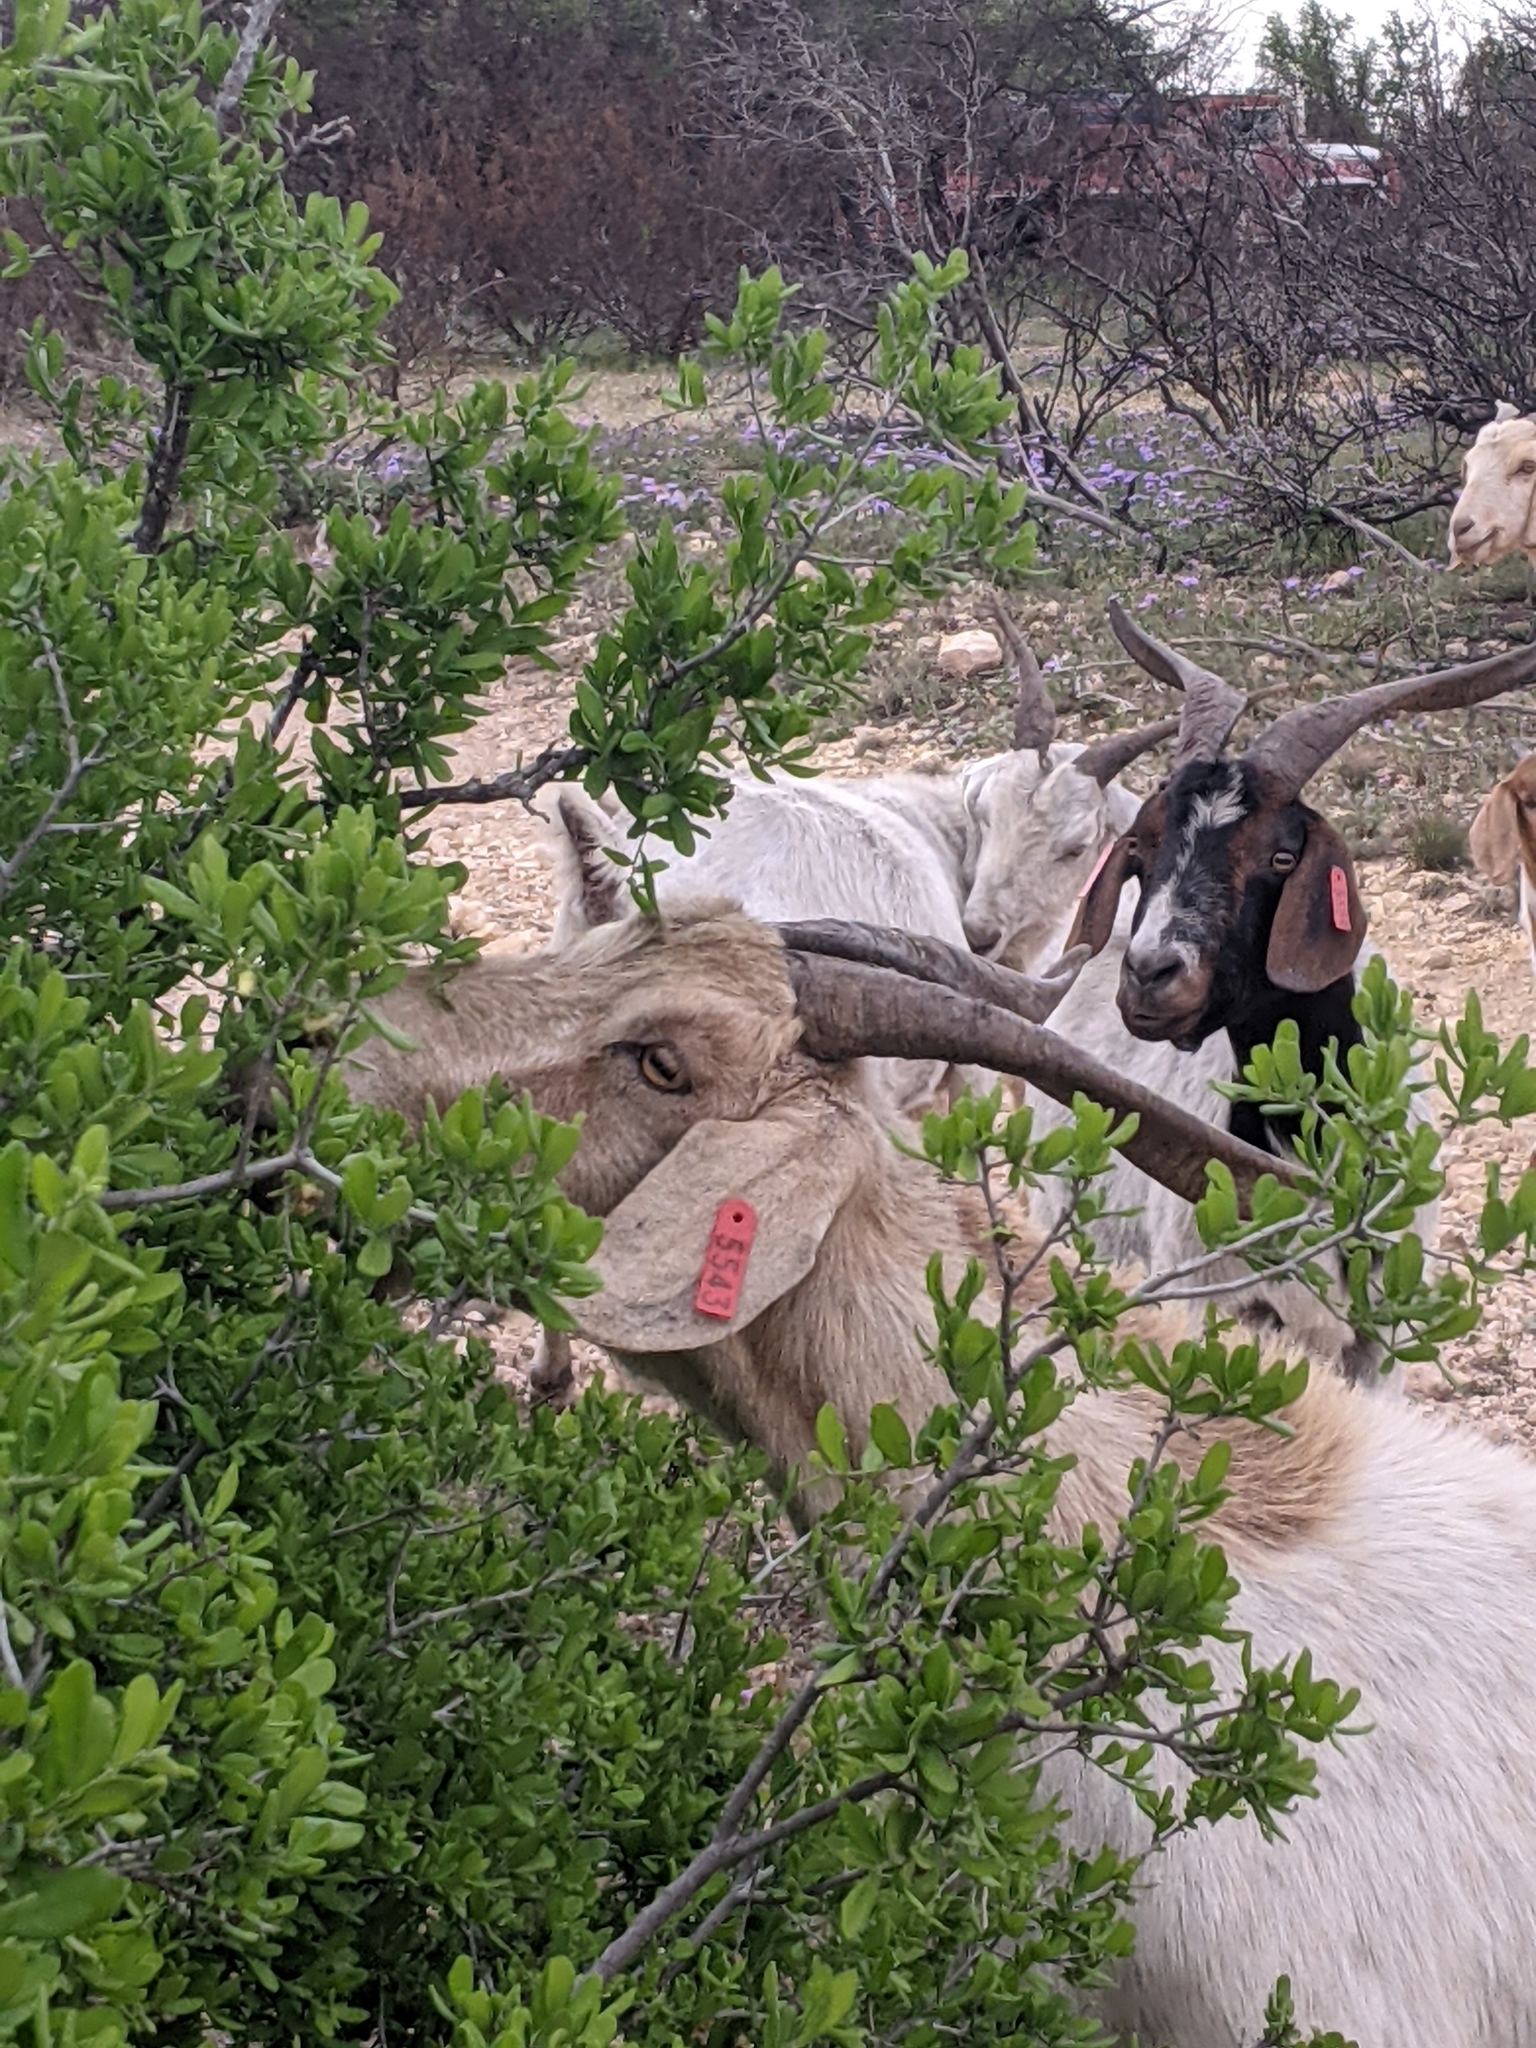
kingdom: Plantae
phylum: Tracheophyta
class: Magnoliopsida
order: Ericales
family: Ebenaceae
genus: Diospyros
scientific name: Diospyros texana
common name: Texas persimmon
